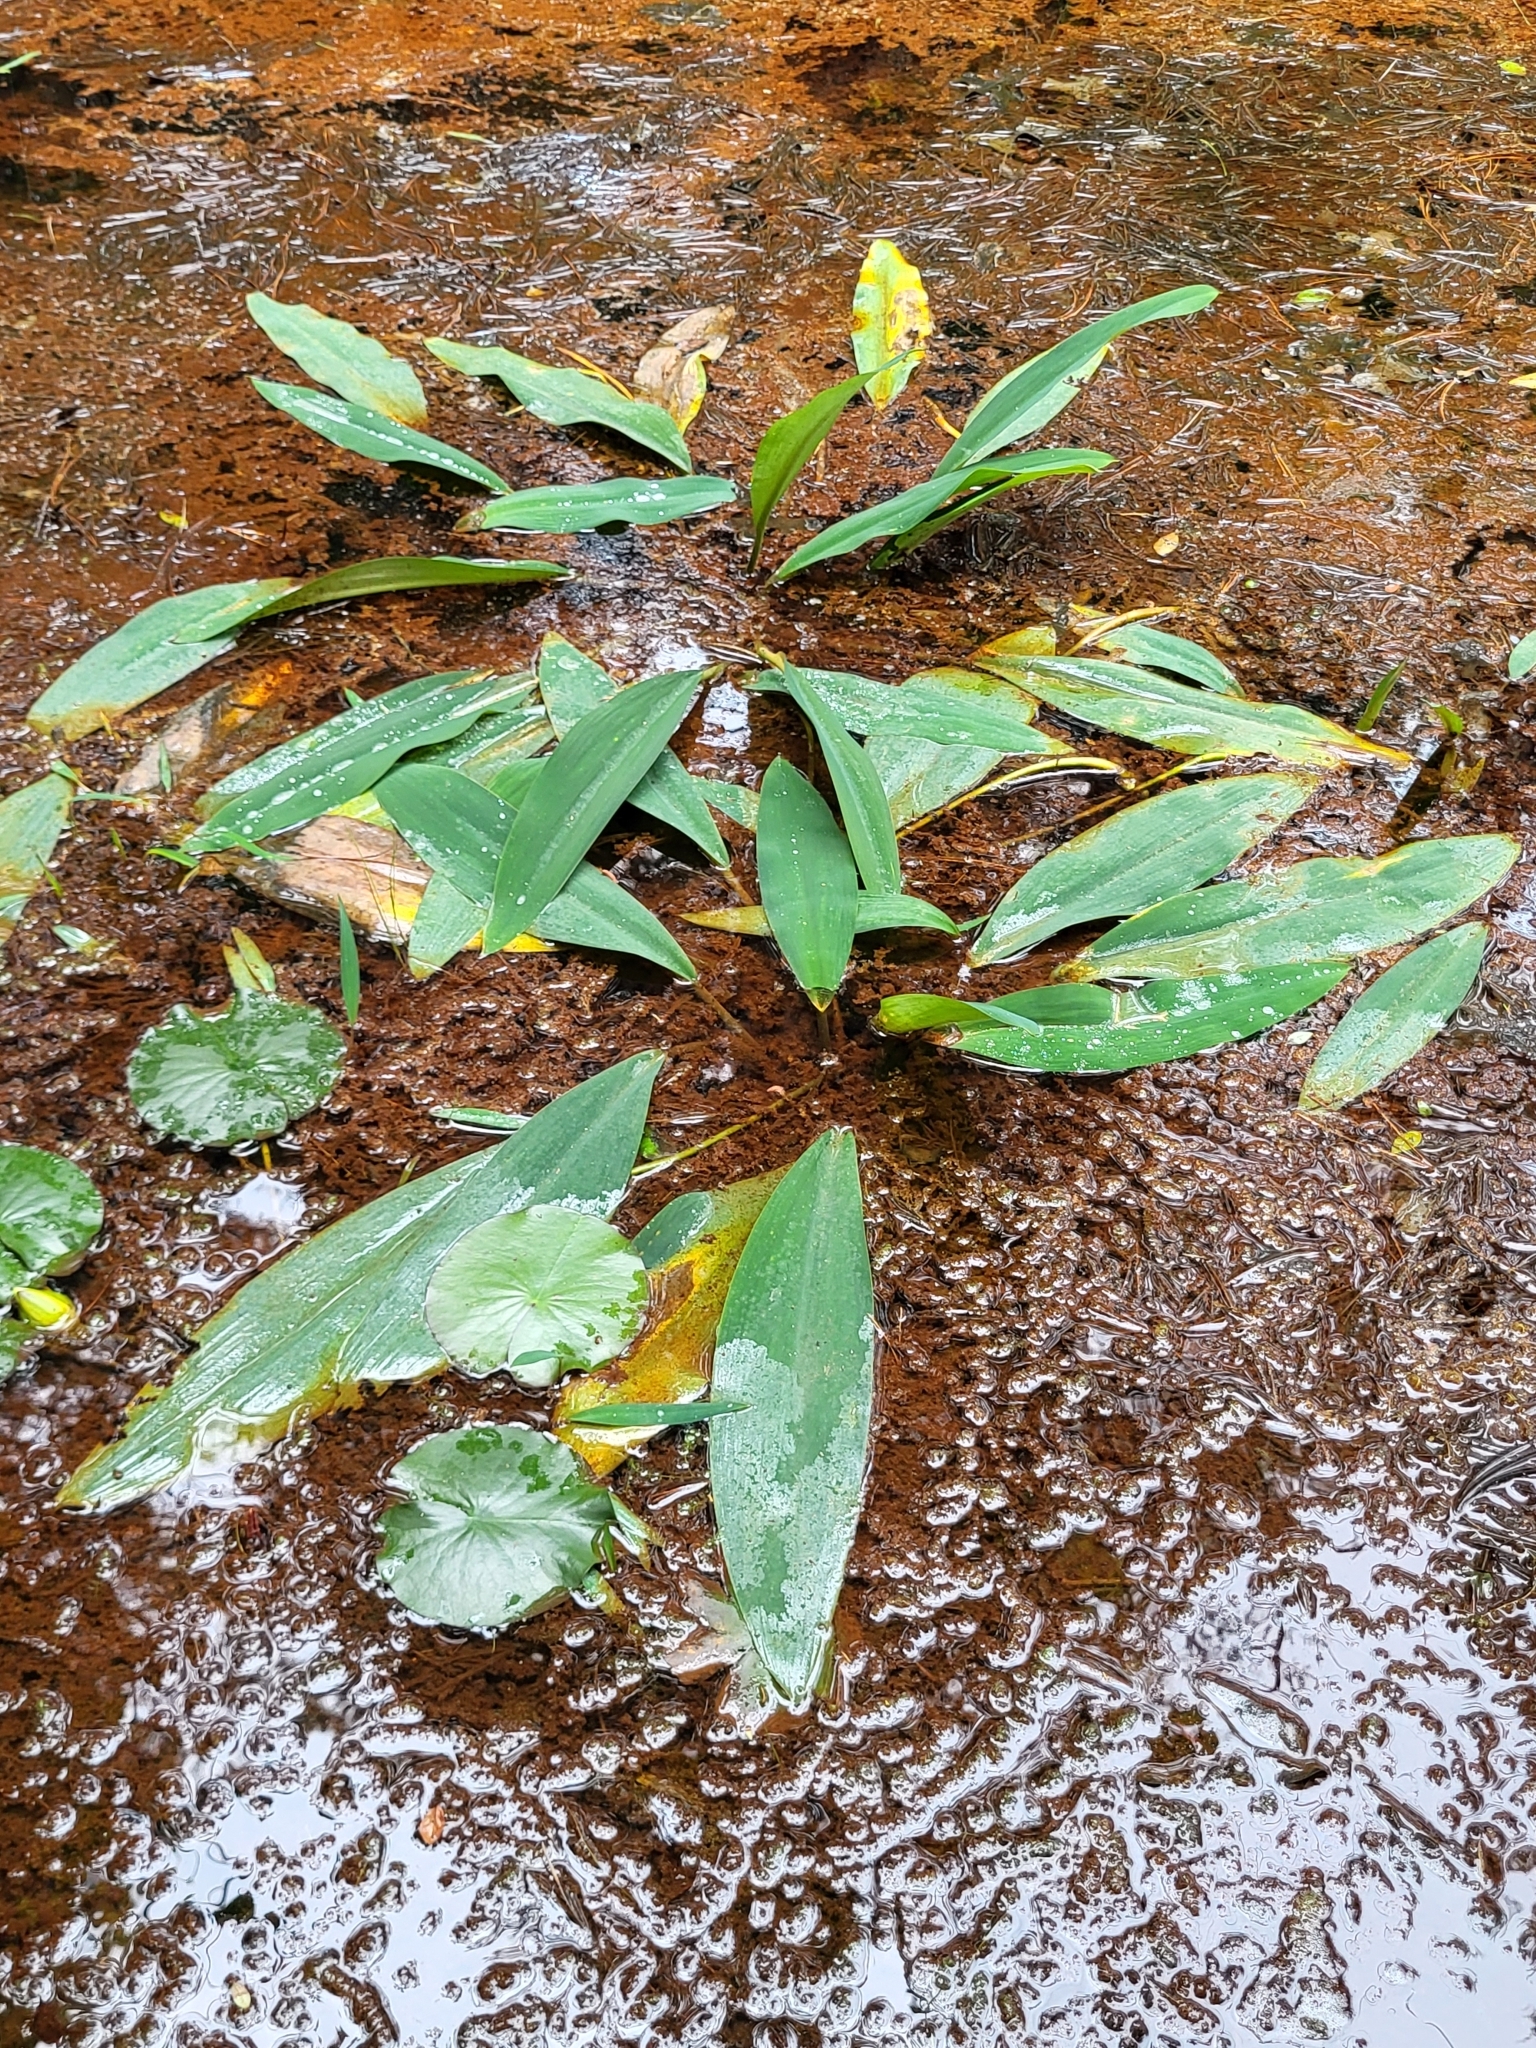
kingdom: Plantae
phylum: Tracheophyta
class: Liliopsida
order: Alismatales
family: Araceae
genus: Orontium
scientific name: Orontium aquaticum
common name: Golden-club
